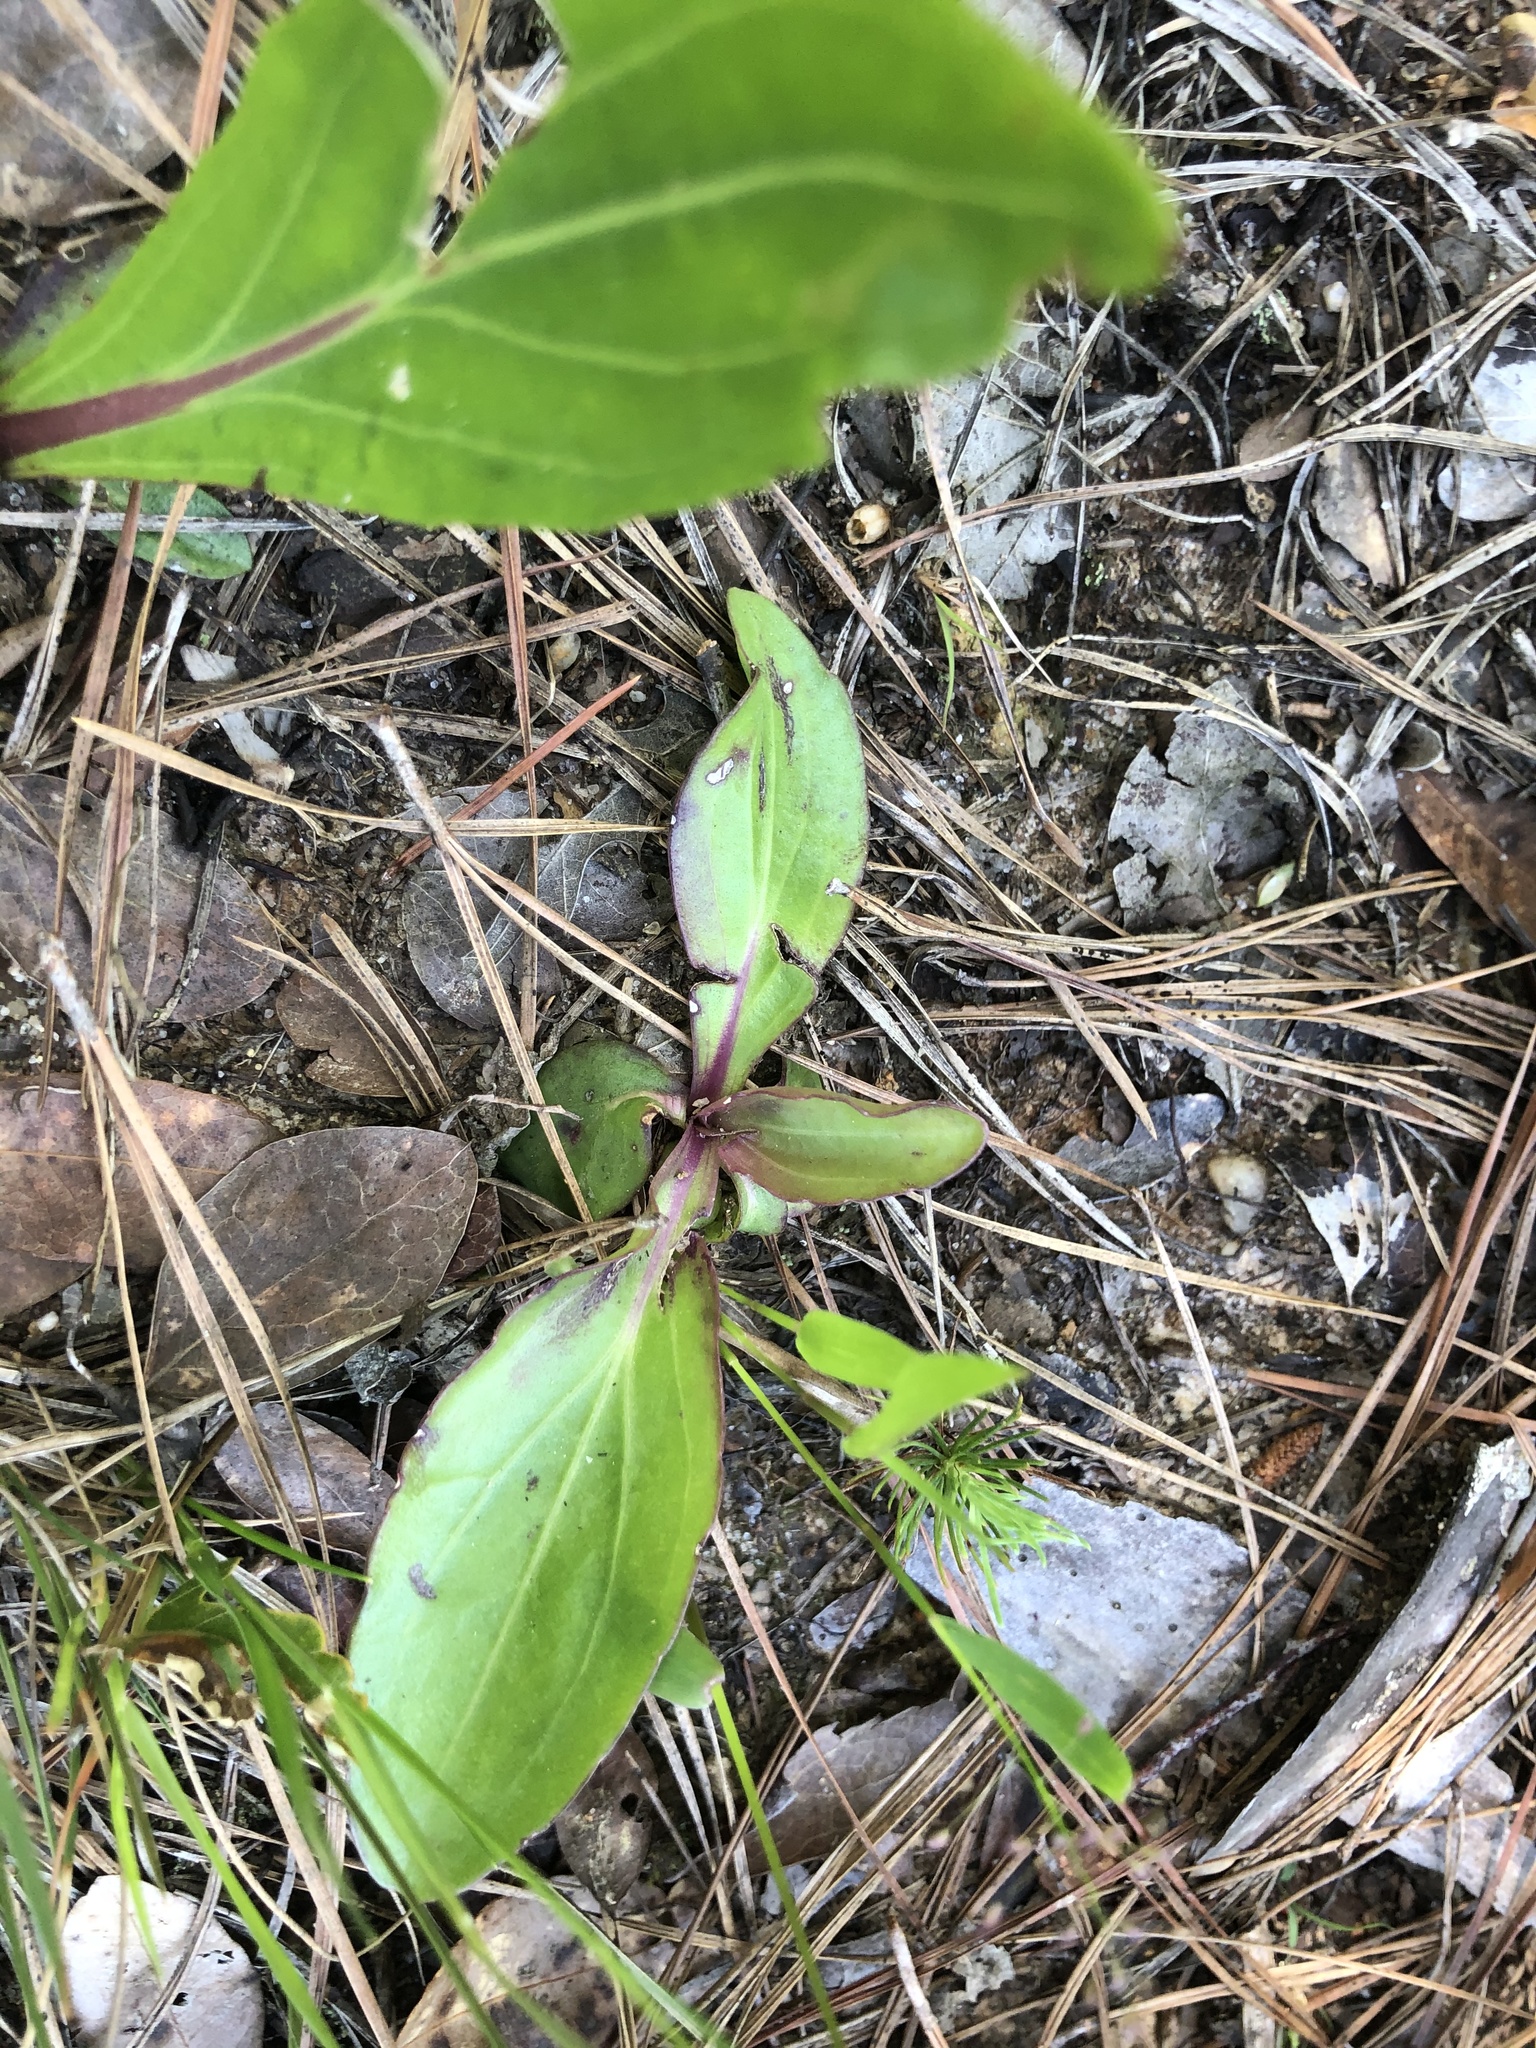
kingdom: Plantae
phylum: Tracheophyta
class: Magnoliopsida
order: Asterales
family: Asteraceae
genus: Carphephorus
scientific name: Carphephorus odoratissimus
